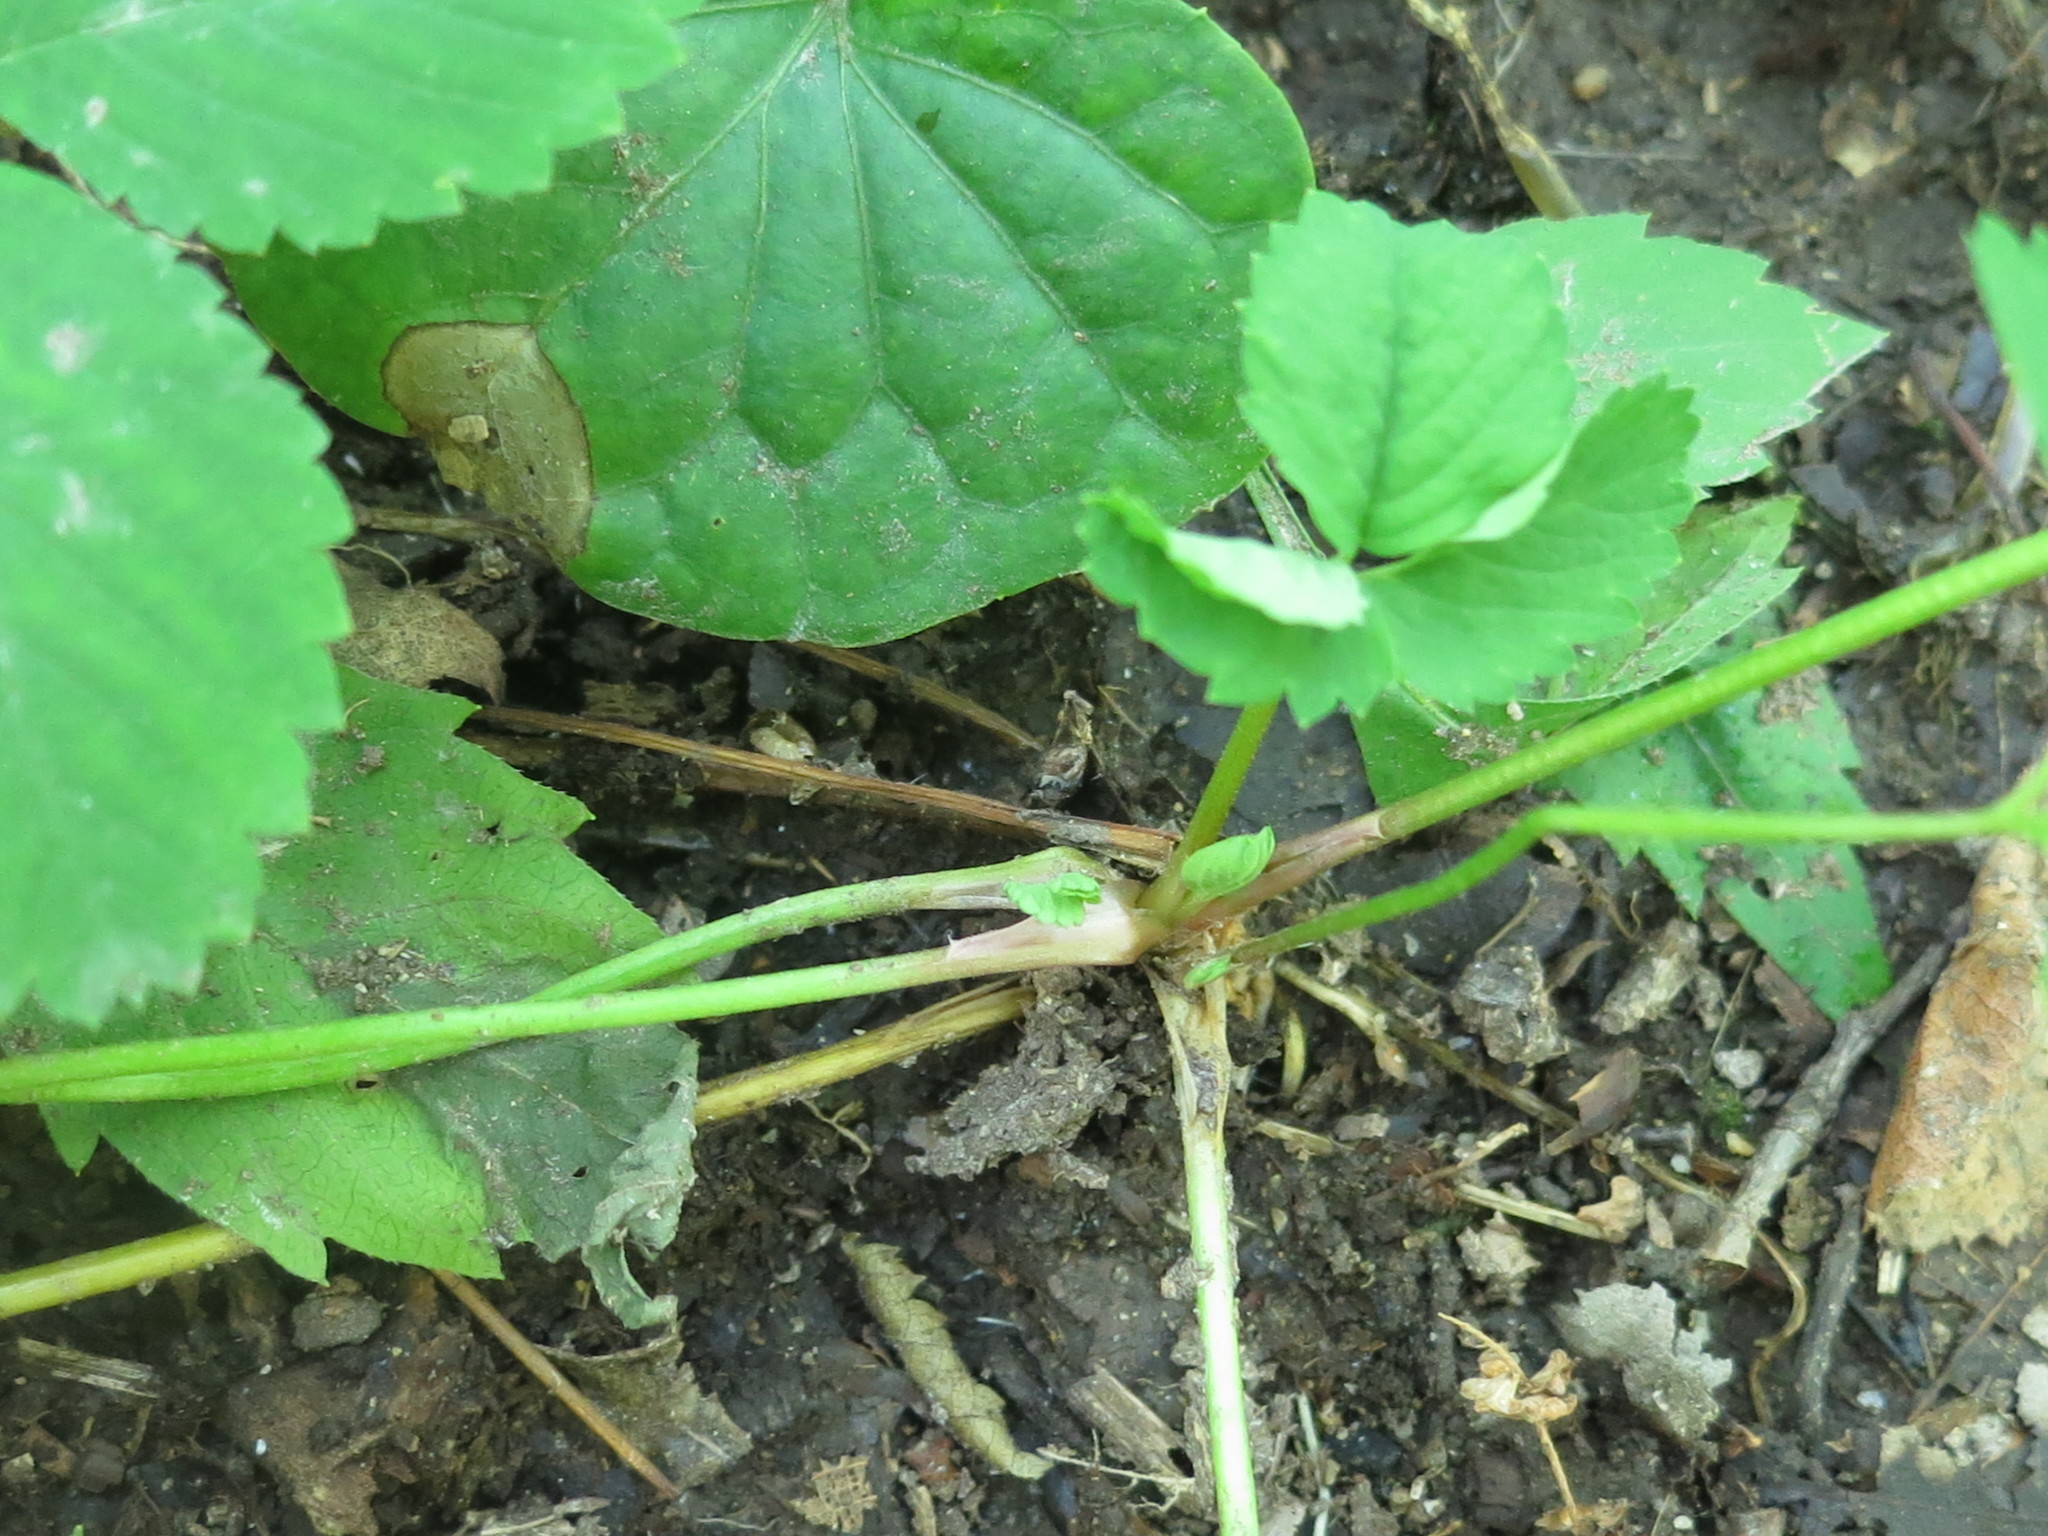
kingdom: Plantae
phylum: Tracheophyta
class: Magnoliopsida
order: Rosales
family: Rosaceae
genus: Potentilla
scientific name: Potentilla centigrana
